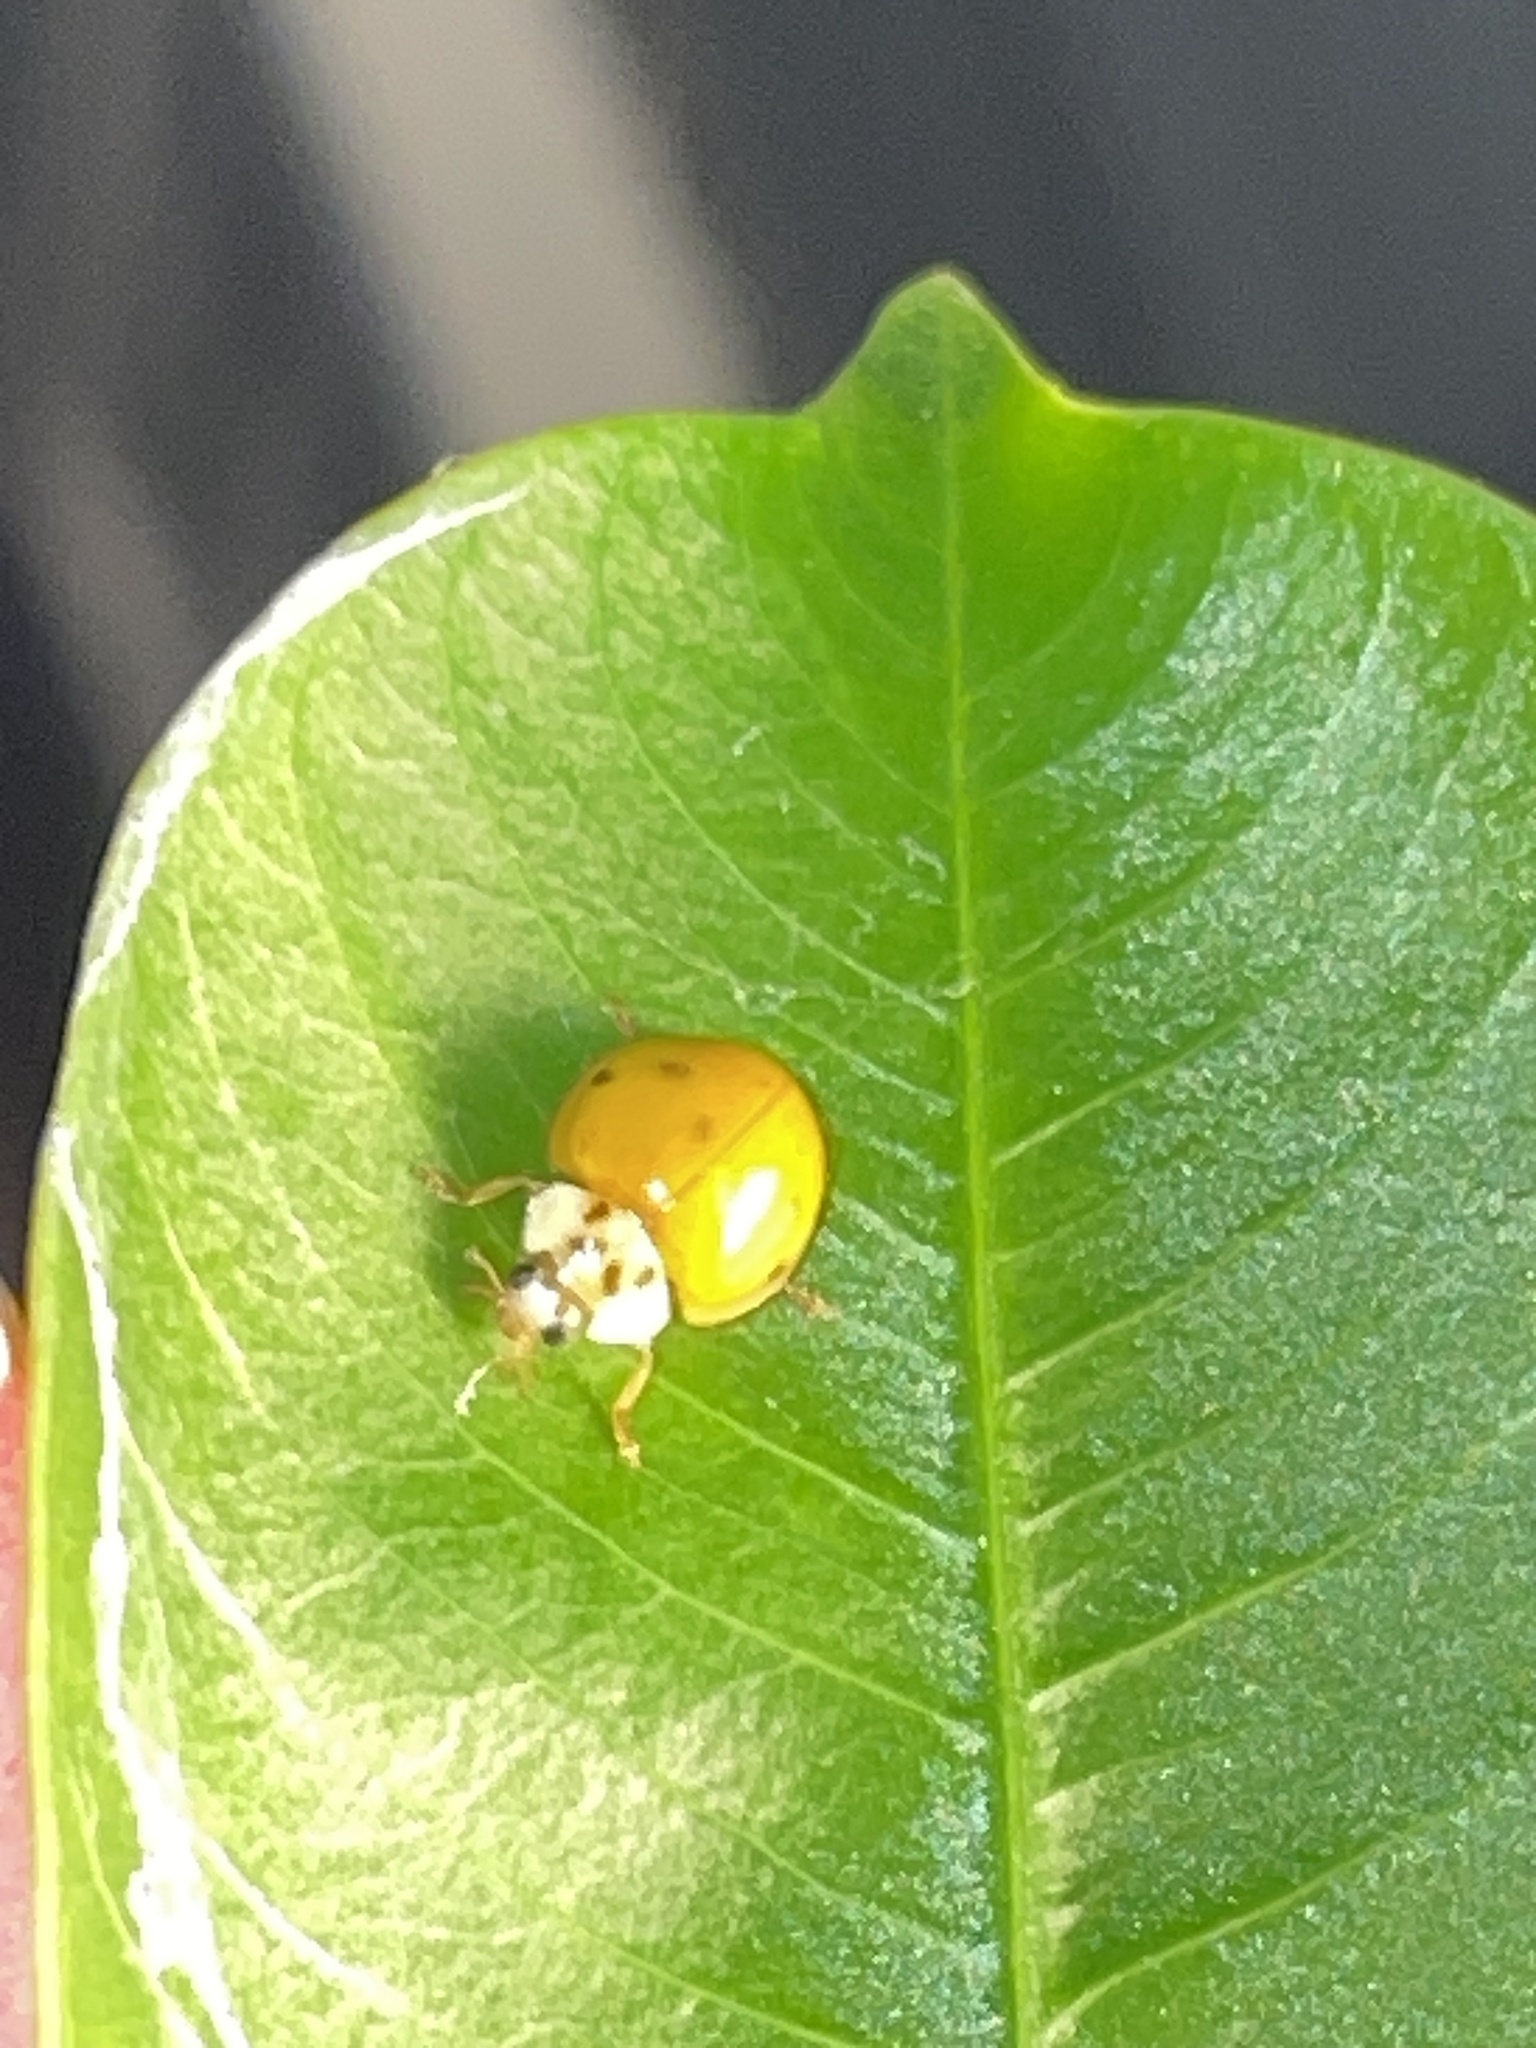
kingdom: Animalia
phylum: Arthropoda
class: Insecta
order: Coleoptera
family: Coccinellidae
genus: Harmonia
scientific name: Harmonia axyridis
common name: Harlequin ladybird
